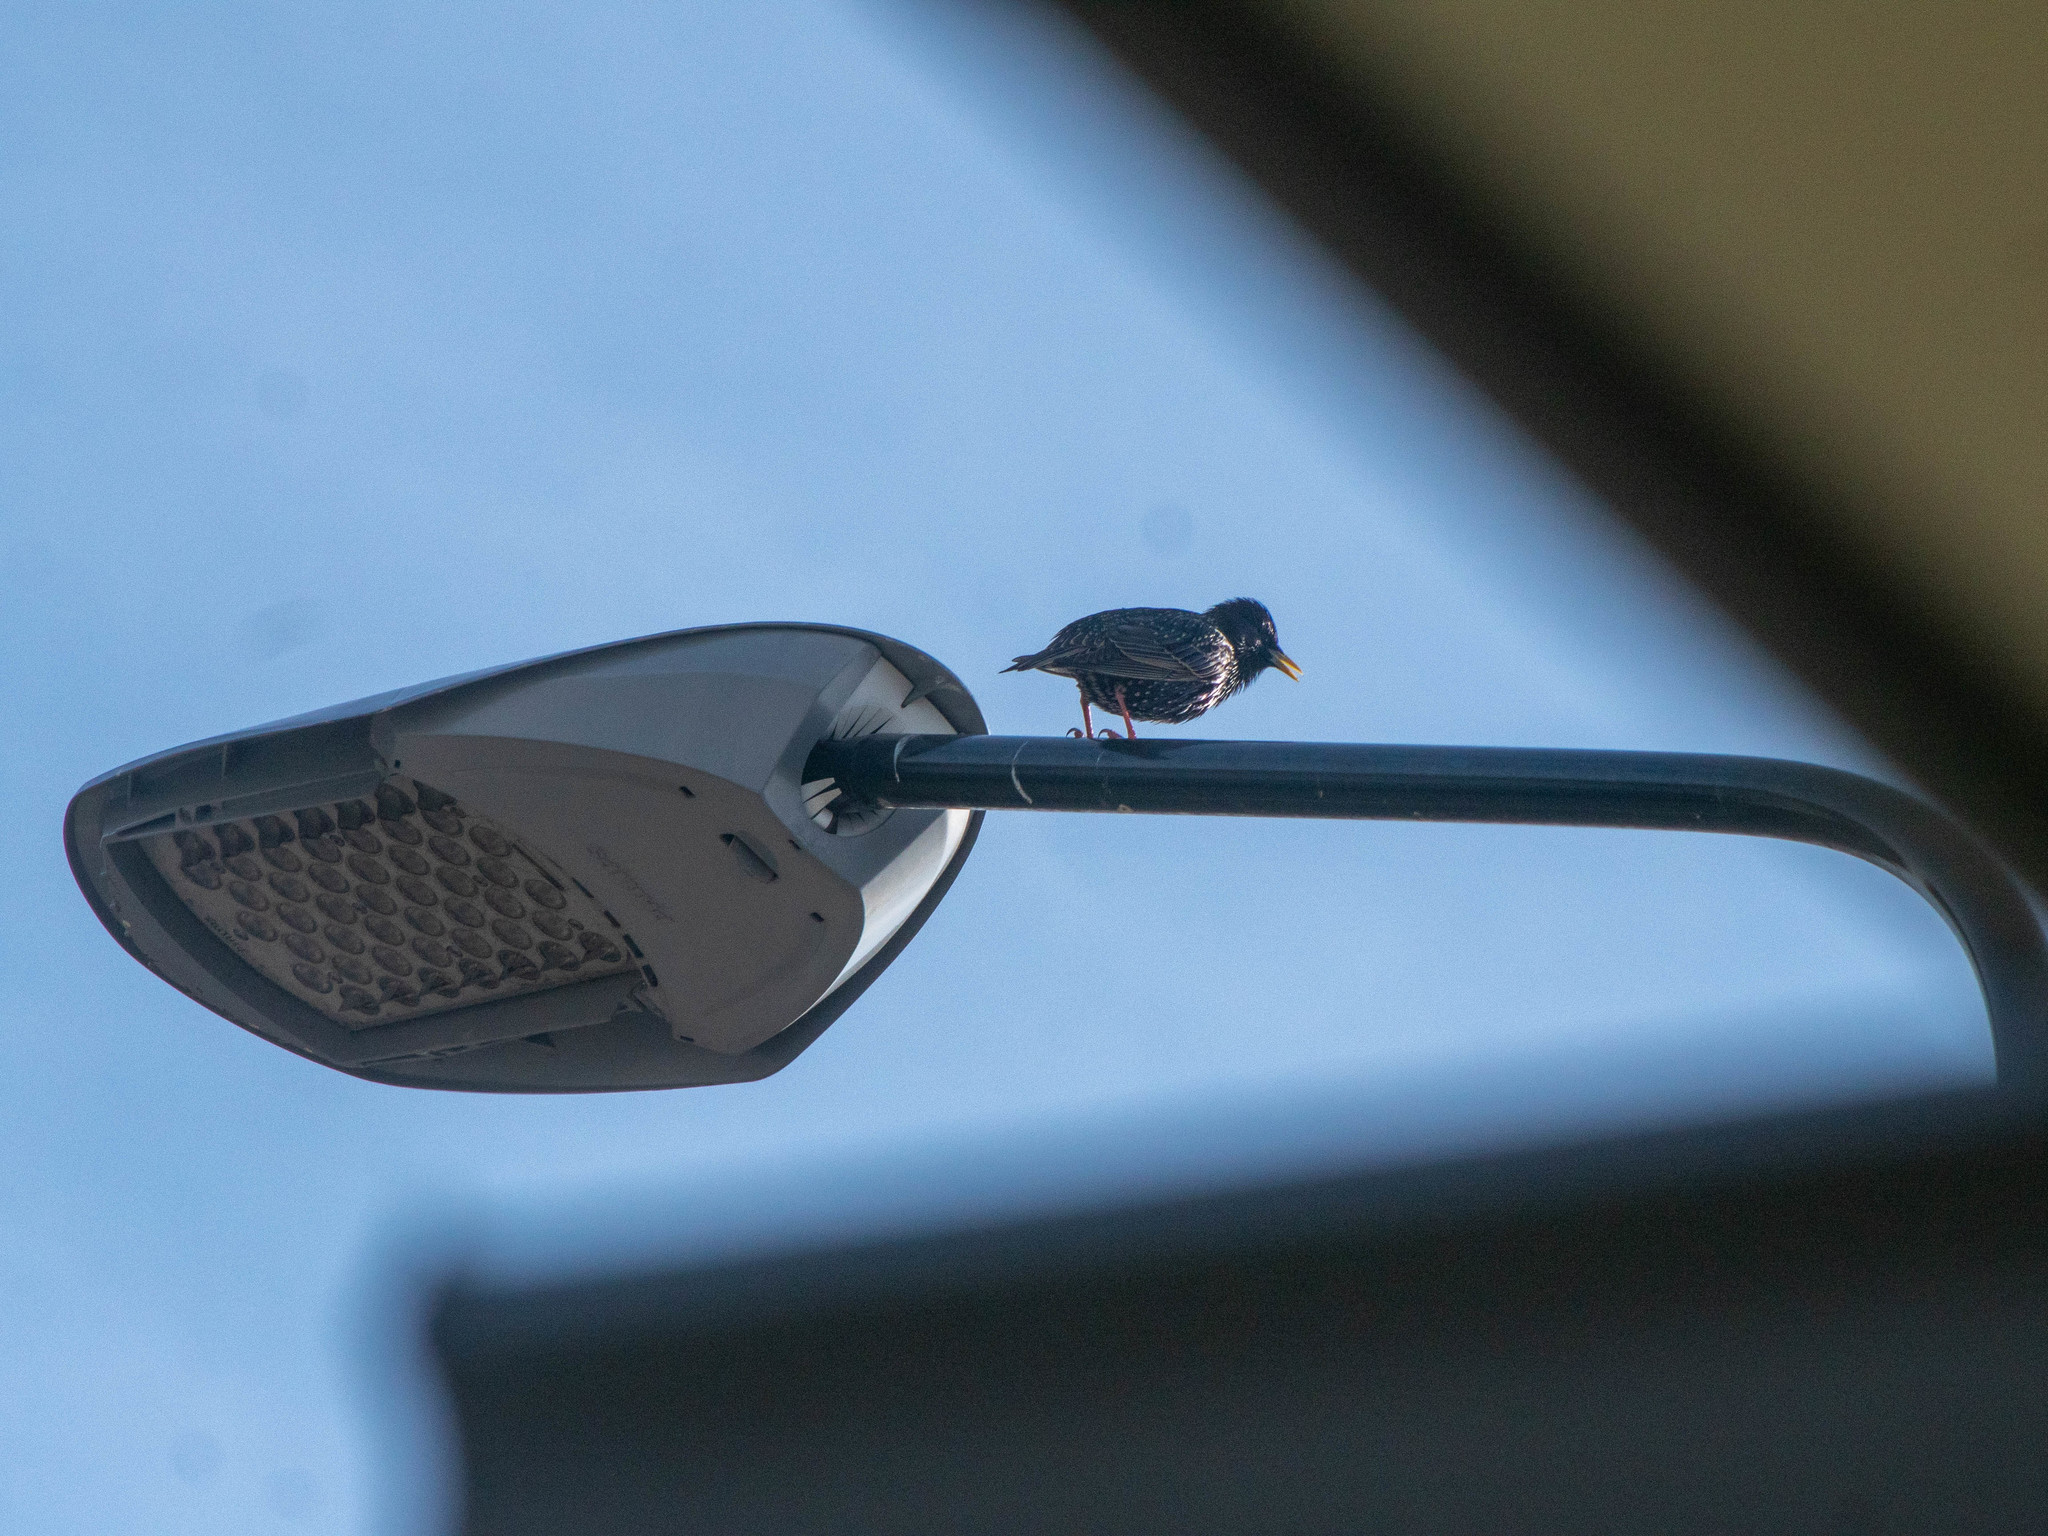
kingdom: Animalia
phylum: Chordata
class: Aves
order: Passeriformes
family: Sturnidae
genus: Sturnus
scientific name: Sturnus vulgaris
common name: Common starling
